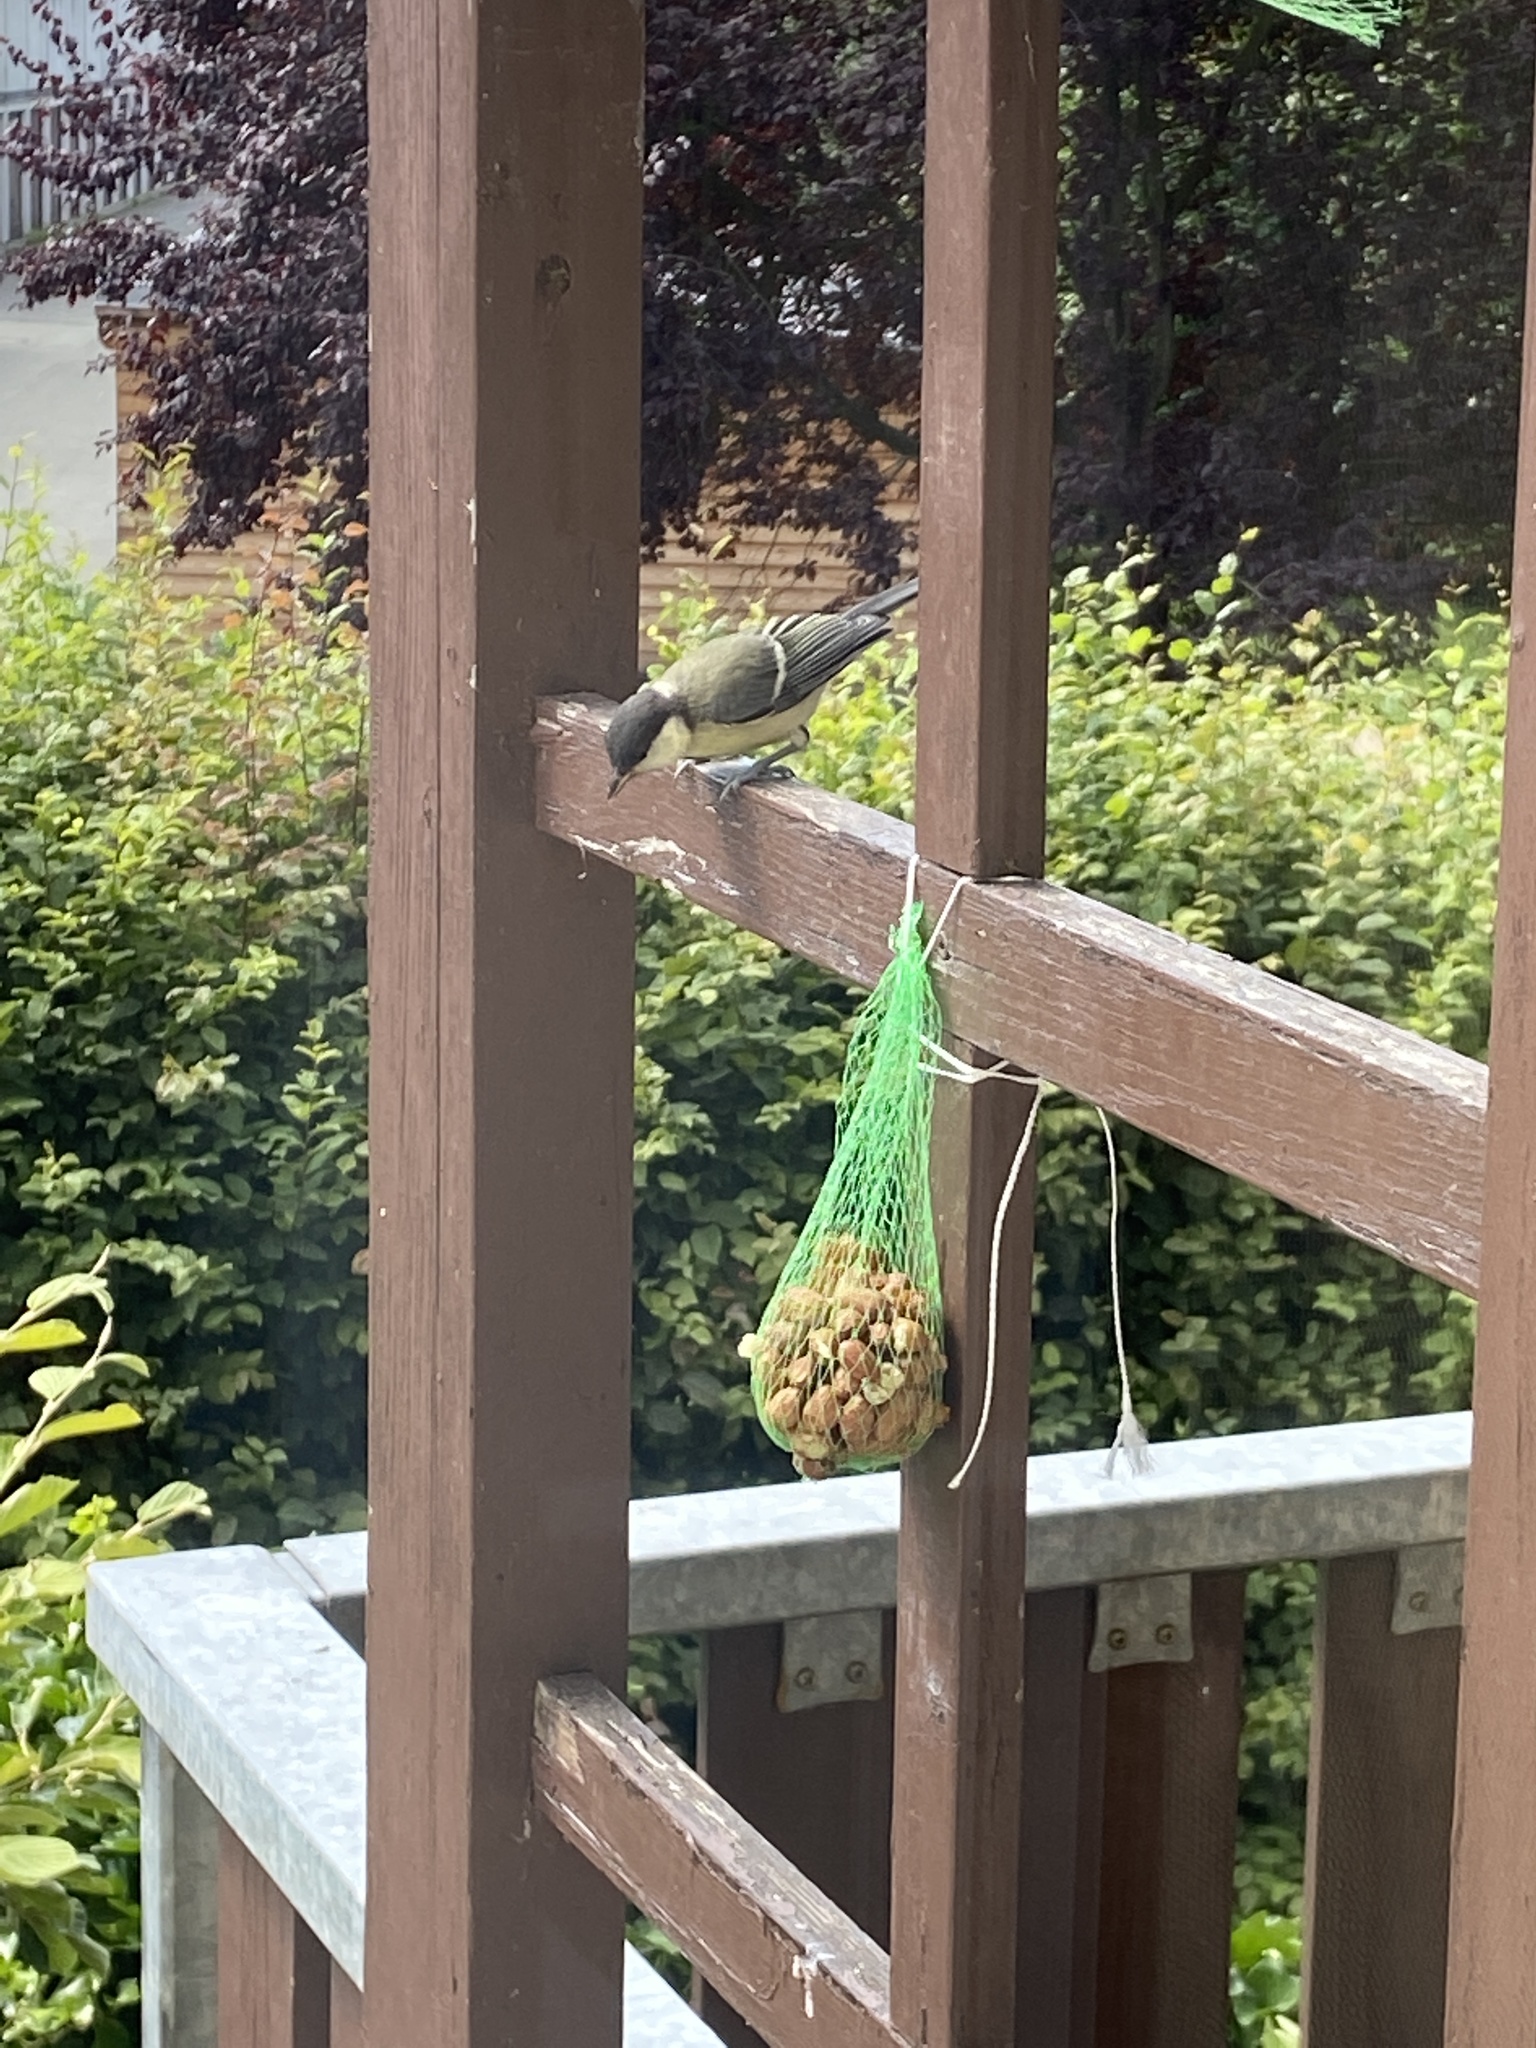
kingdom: Animalia
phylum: Chordata
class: Aves
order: Passeriformes
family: Paridae
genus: Parus
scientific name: Parus major
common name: Great tit
